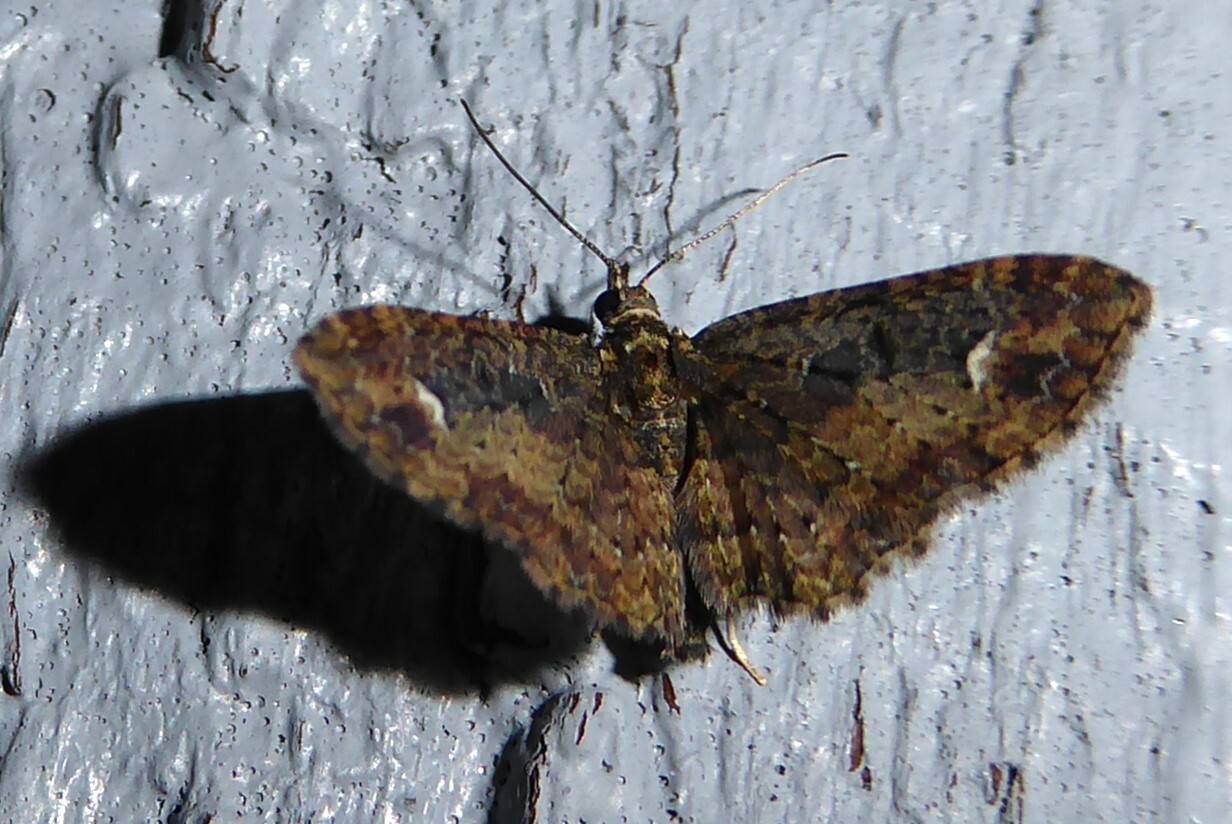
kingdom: Animalia
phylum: Arthropoda
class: Insecta
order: Lepidoptera
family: Geometridae
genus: Pasiphilodes
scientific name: Pasiphilodes testulata
